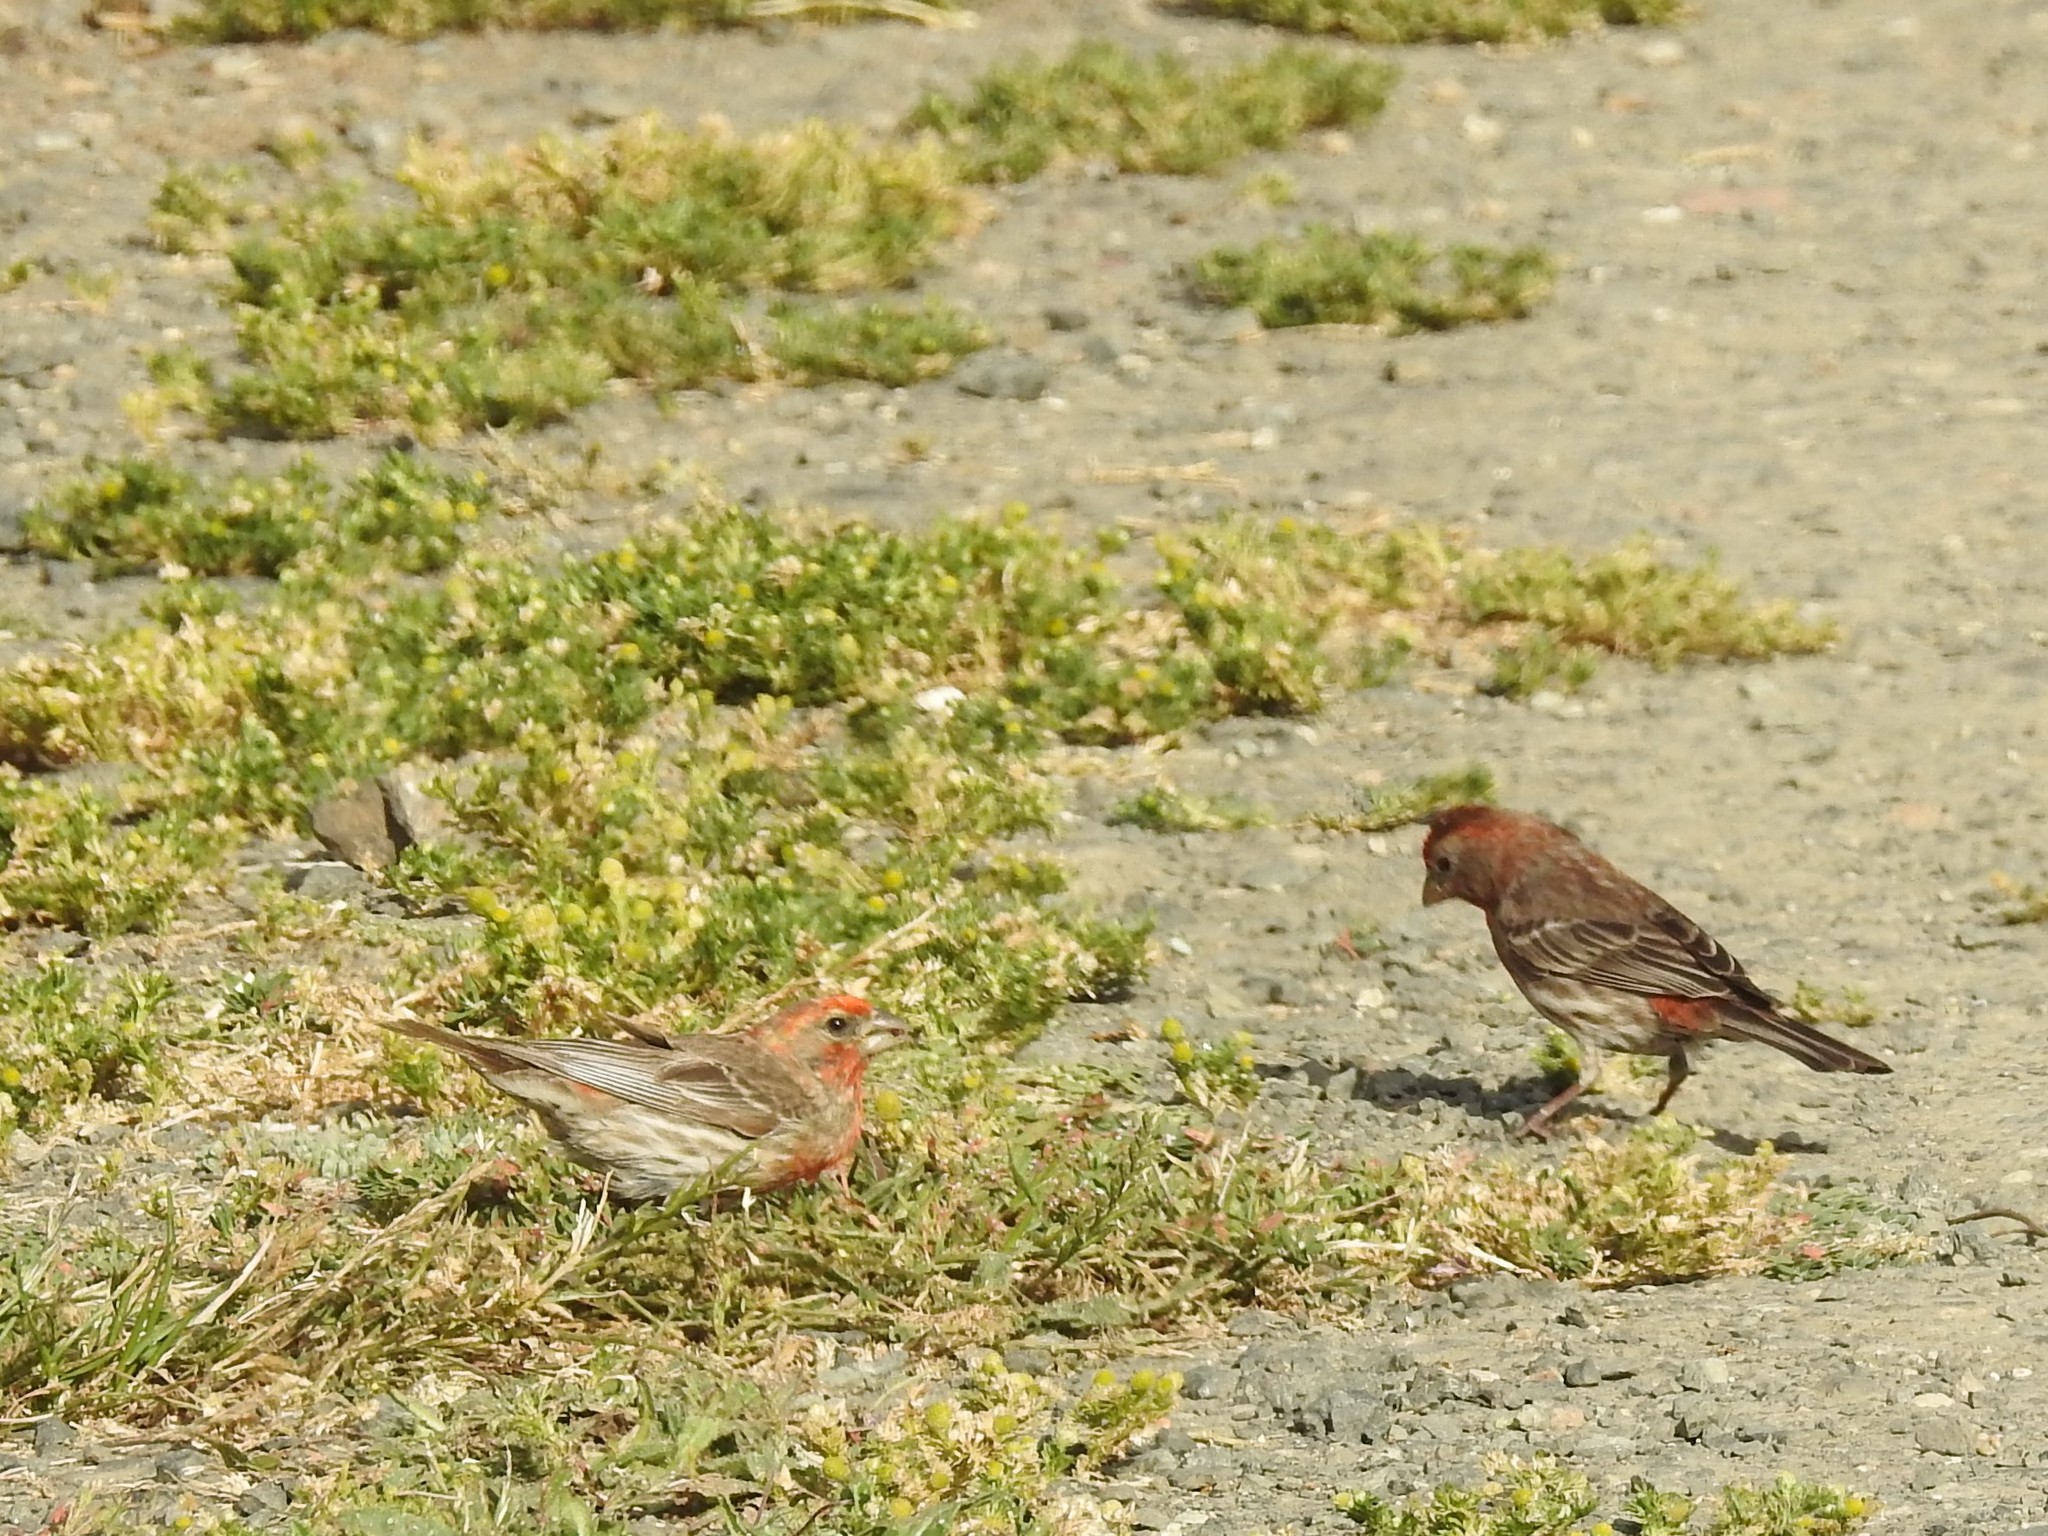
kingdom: Animalia
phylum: Chordata
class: Aves
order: Passeriformes
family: Fringillidae
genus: Haemorhous
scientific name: Haemorhous mexicanus
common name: House finch
